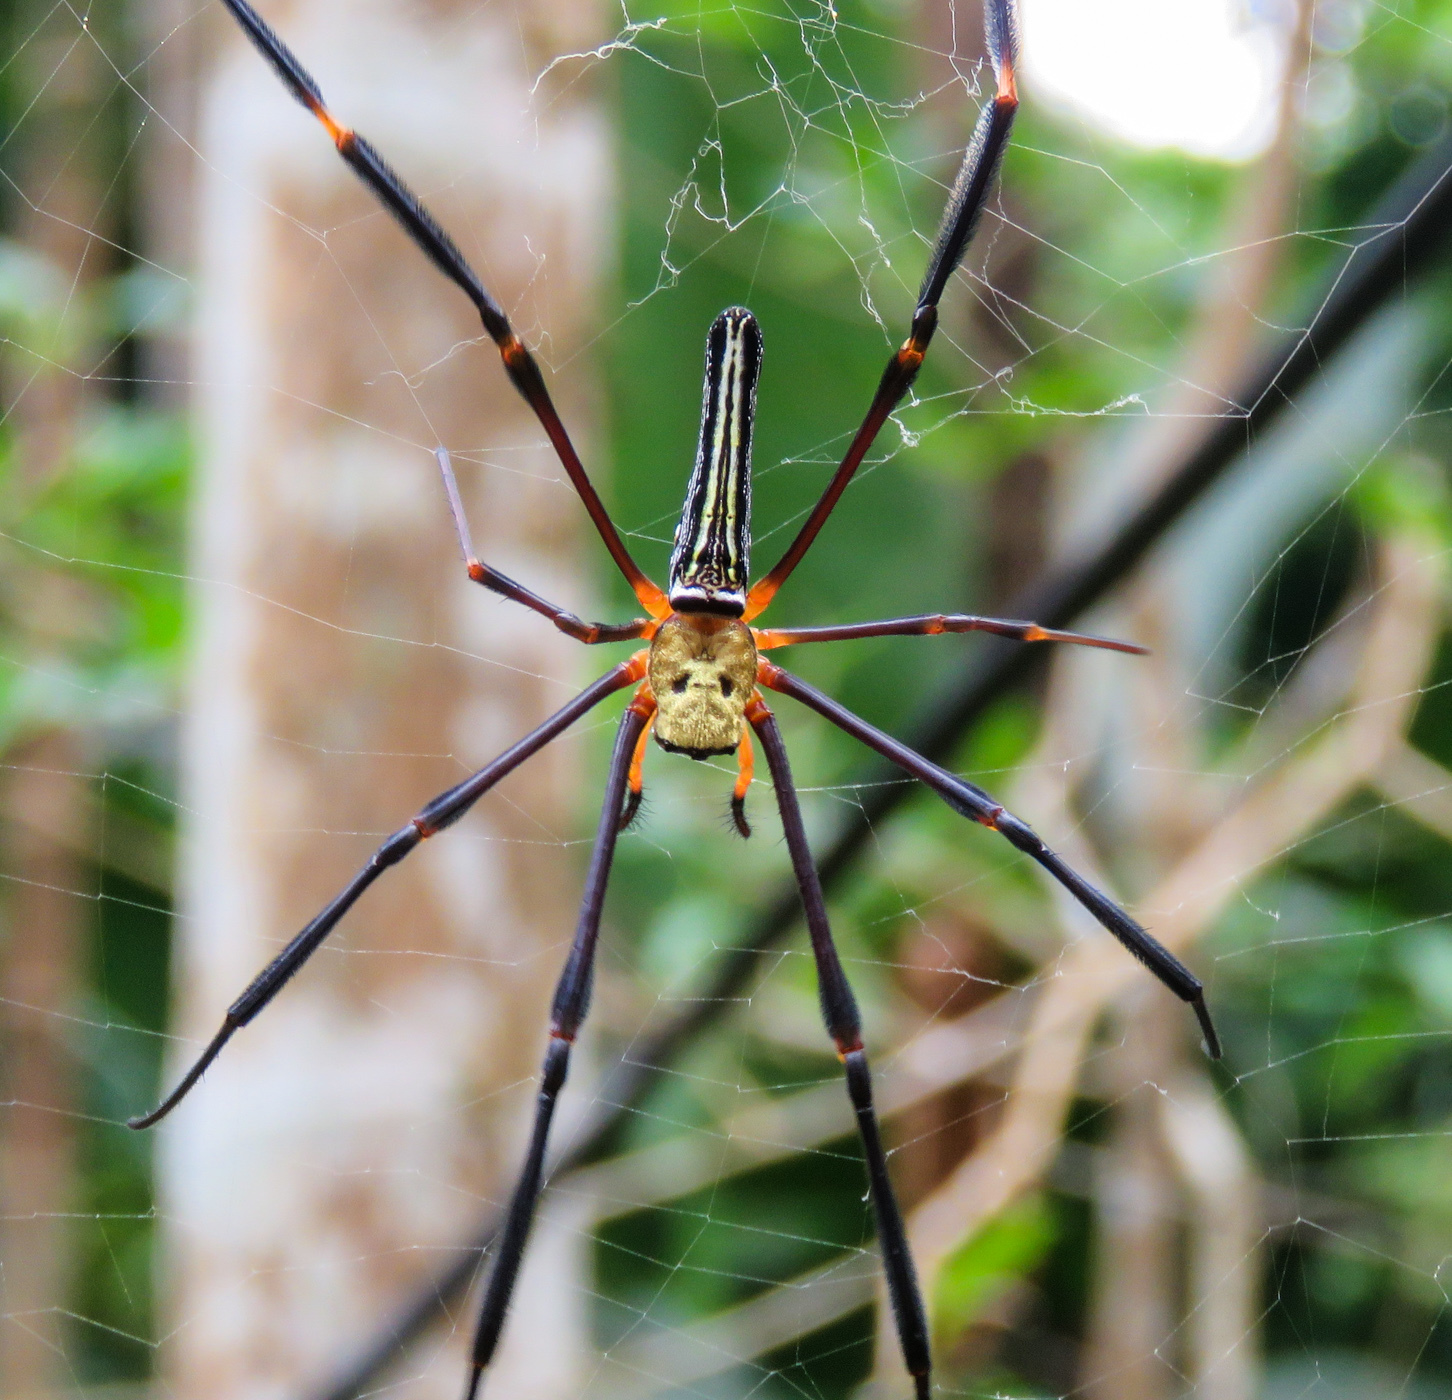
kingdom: Animalia
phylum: Arthropoda
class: Arachnida
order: Araneae
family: Araneidae
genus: Nephila
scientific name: Nephila pilipes
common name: Giant golden orb weaver
